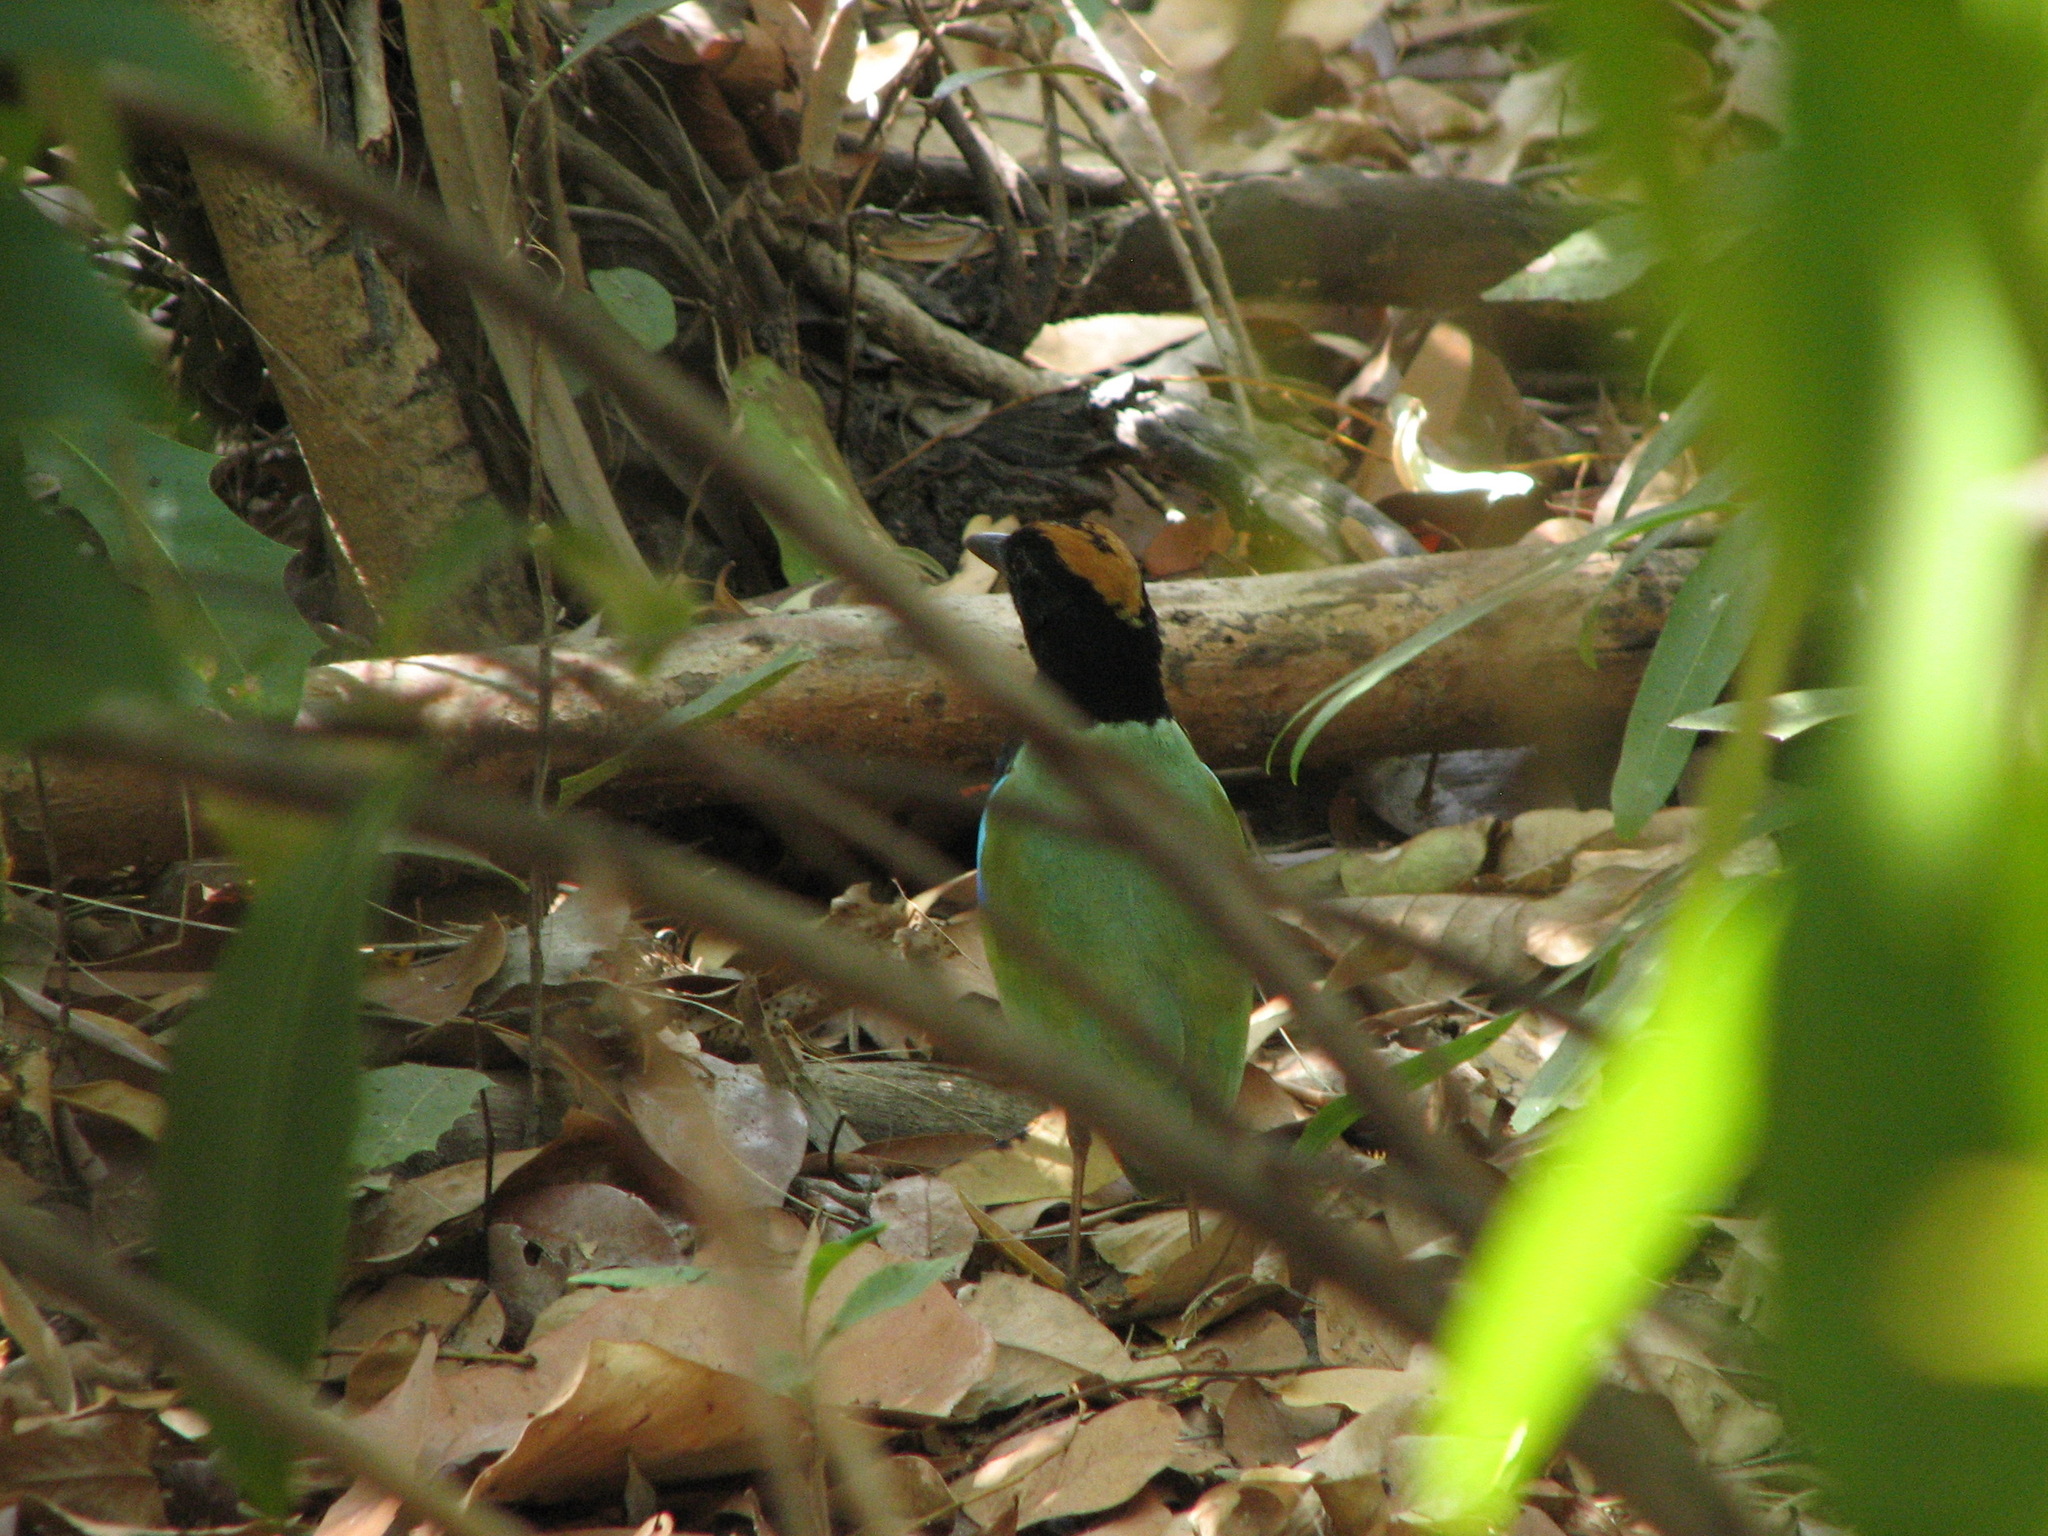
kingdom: Animalia
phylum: Chordata
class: Aves
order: Passeriformes
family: Pittidae
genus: Pitta
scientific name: Pitta iris
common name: Rainbow pitta
